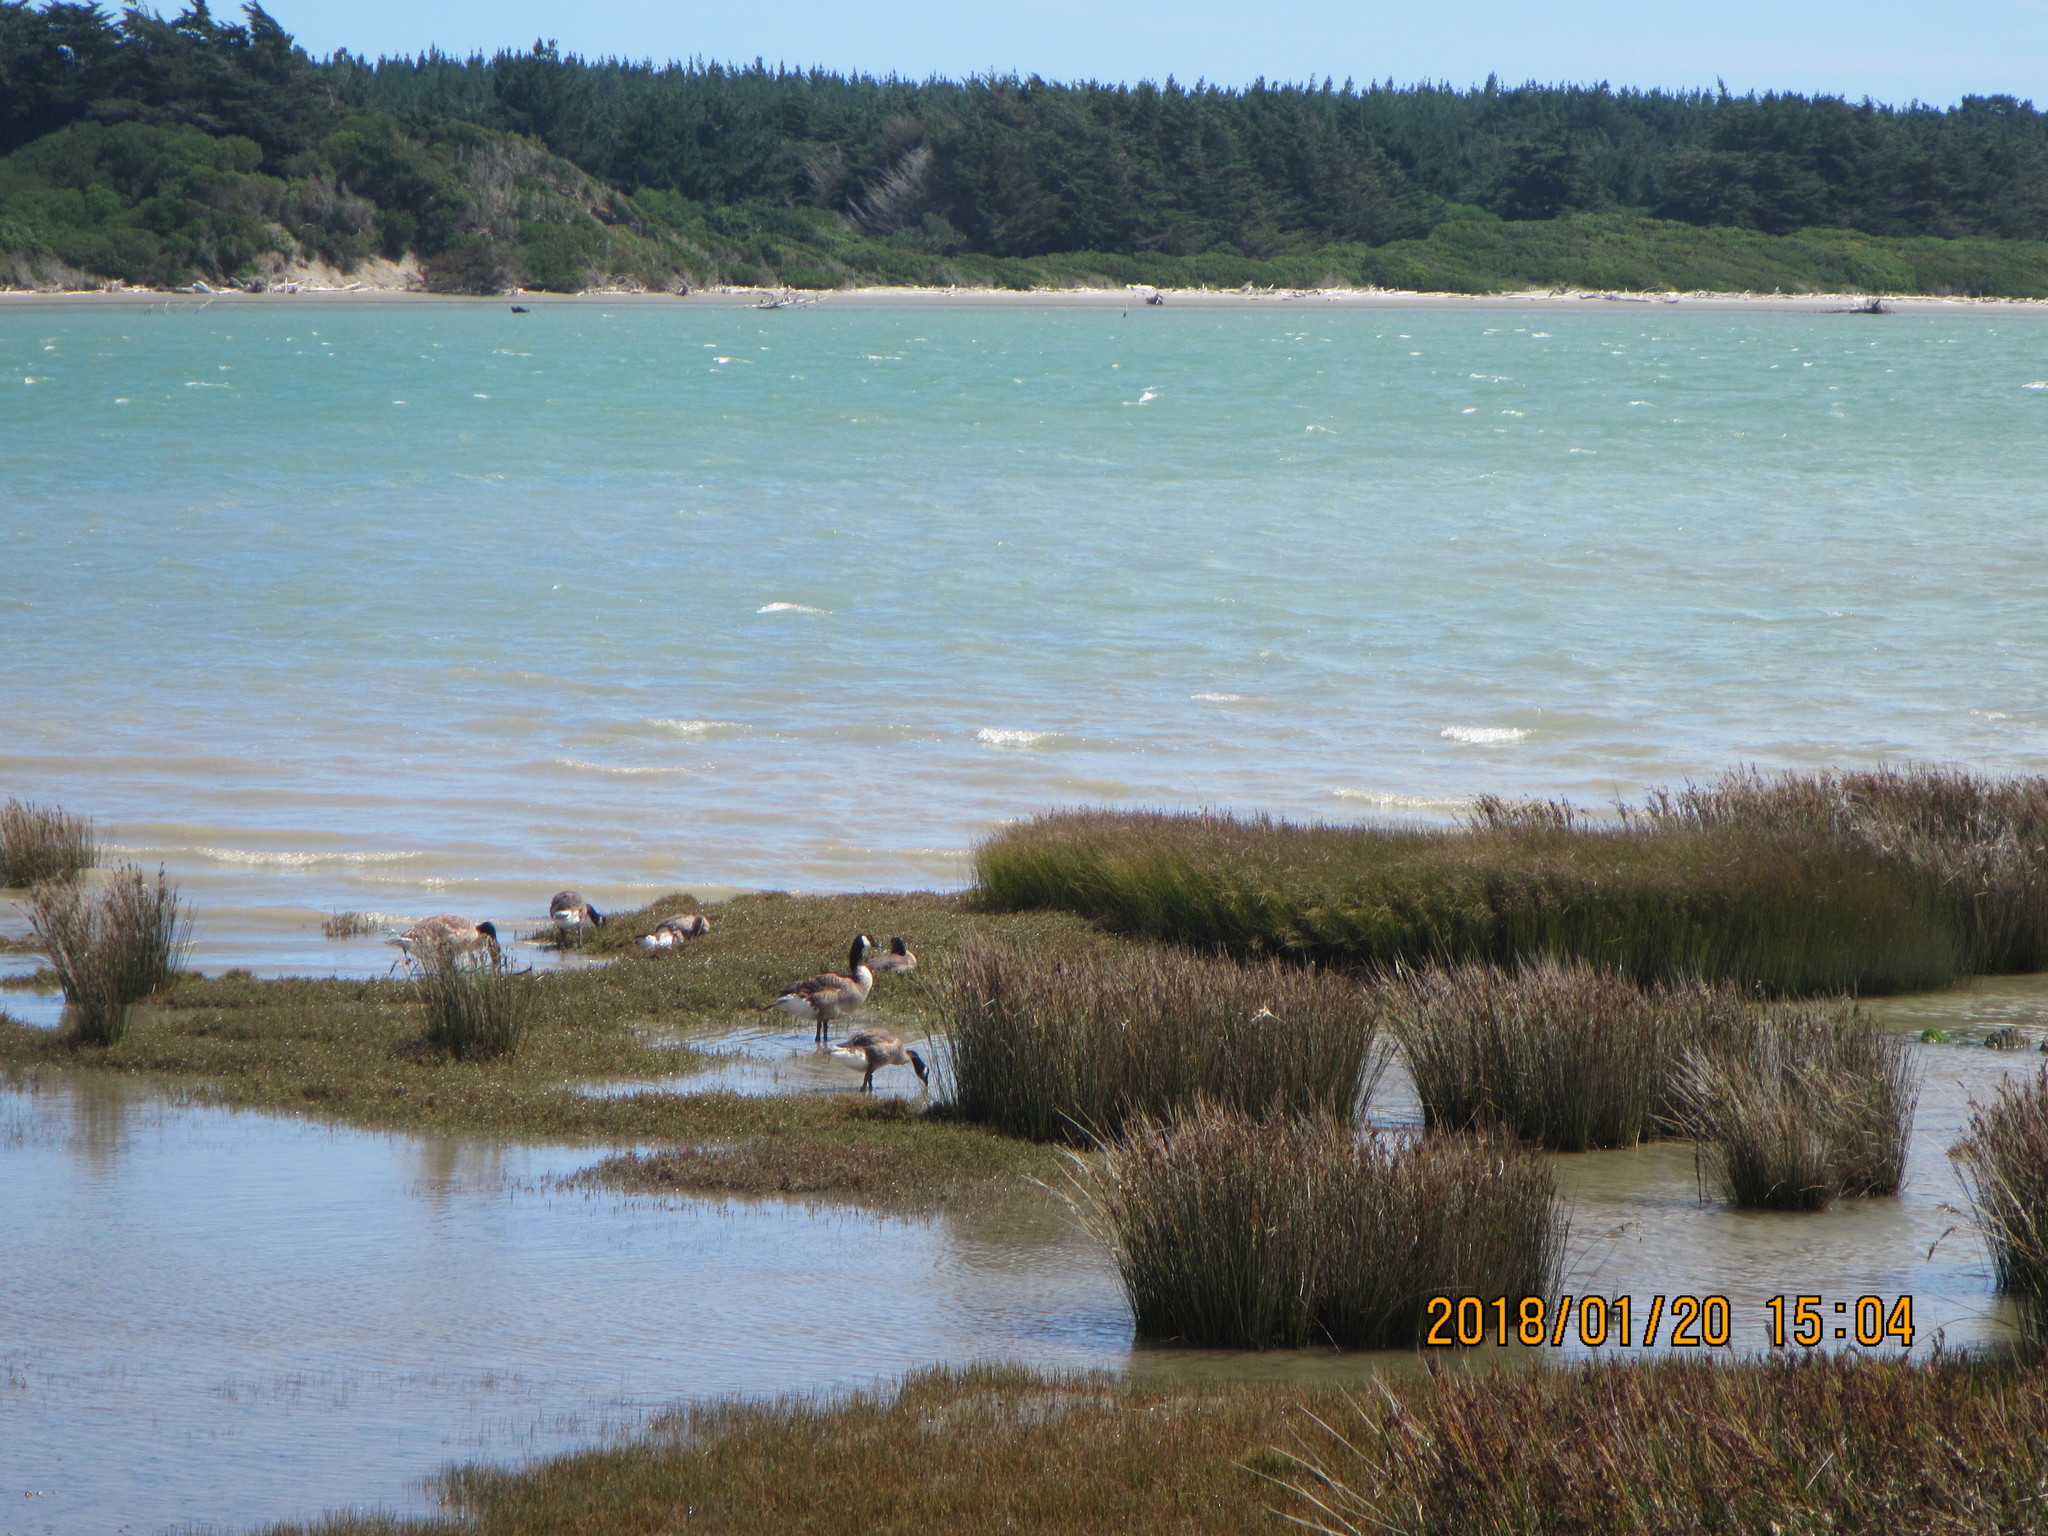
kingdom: Animalia
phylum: Chordata
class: Aves
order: Anseriformes
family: Anatidae
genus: Branta
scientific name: Branta canadensis
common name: Canada goose
